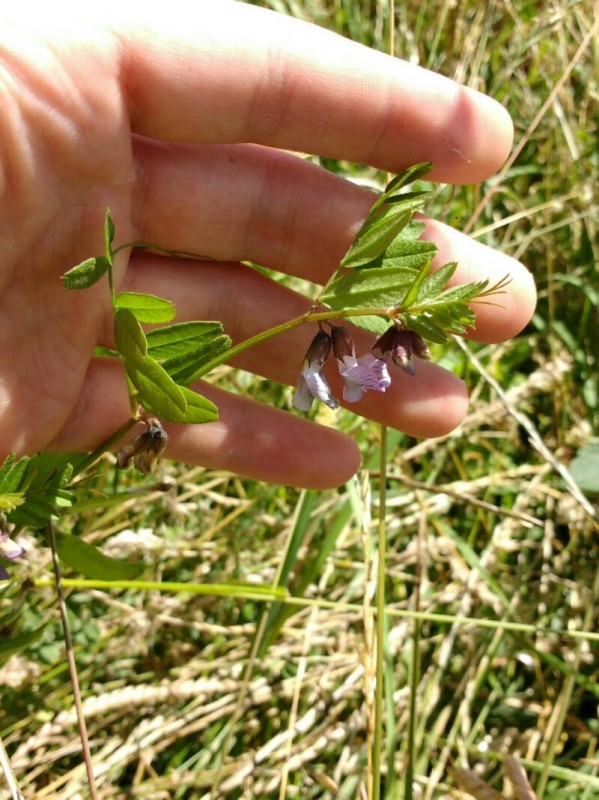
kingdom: Plantae
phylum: Tracheophyta
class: Magnoliopsida
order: Fabales
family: Fabaceae
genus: Vicia
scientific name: Vicia sepium
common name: Bush vetch
